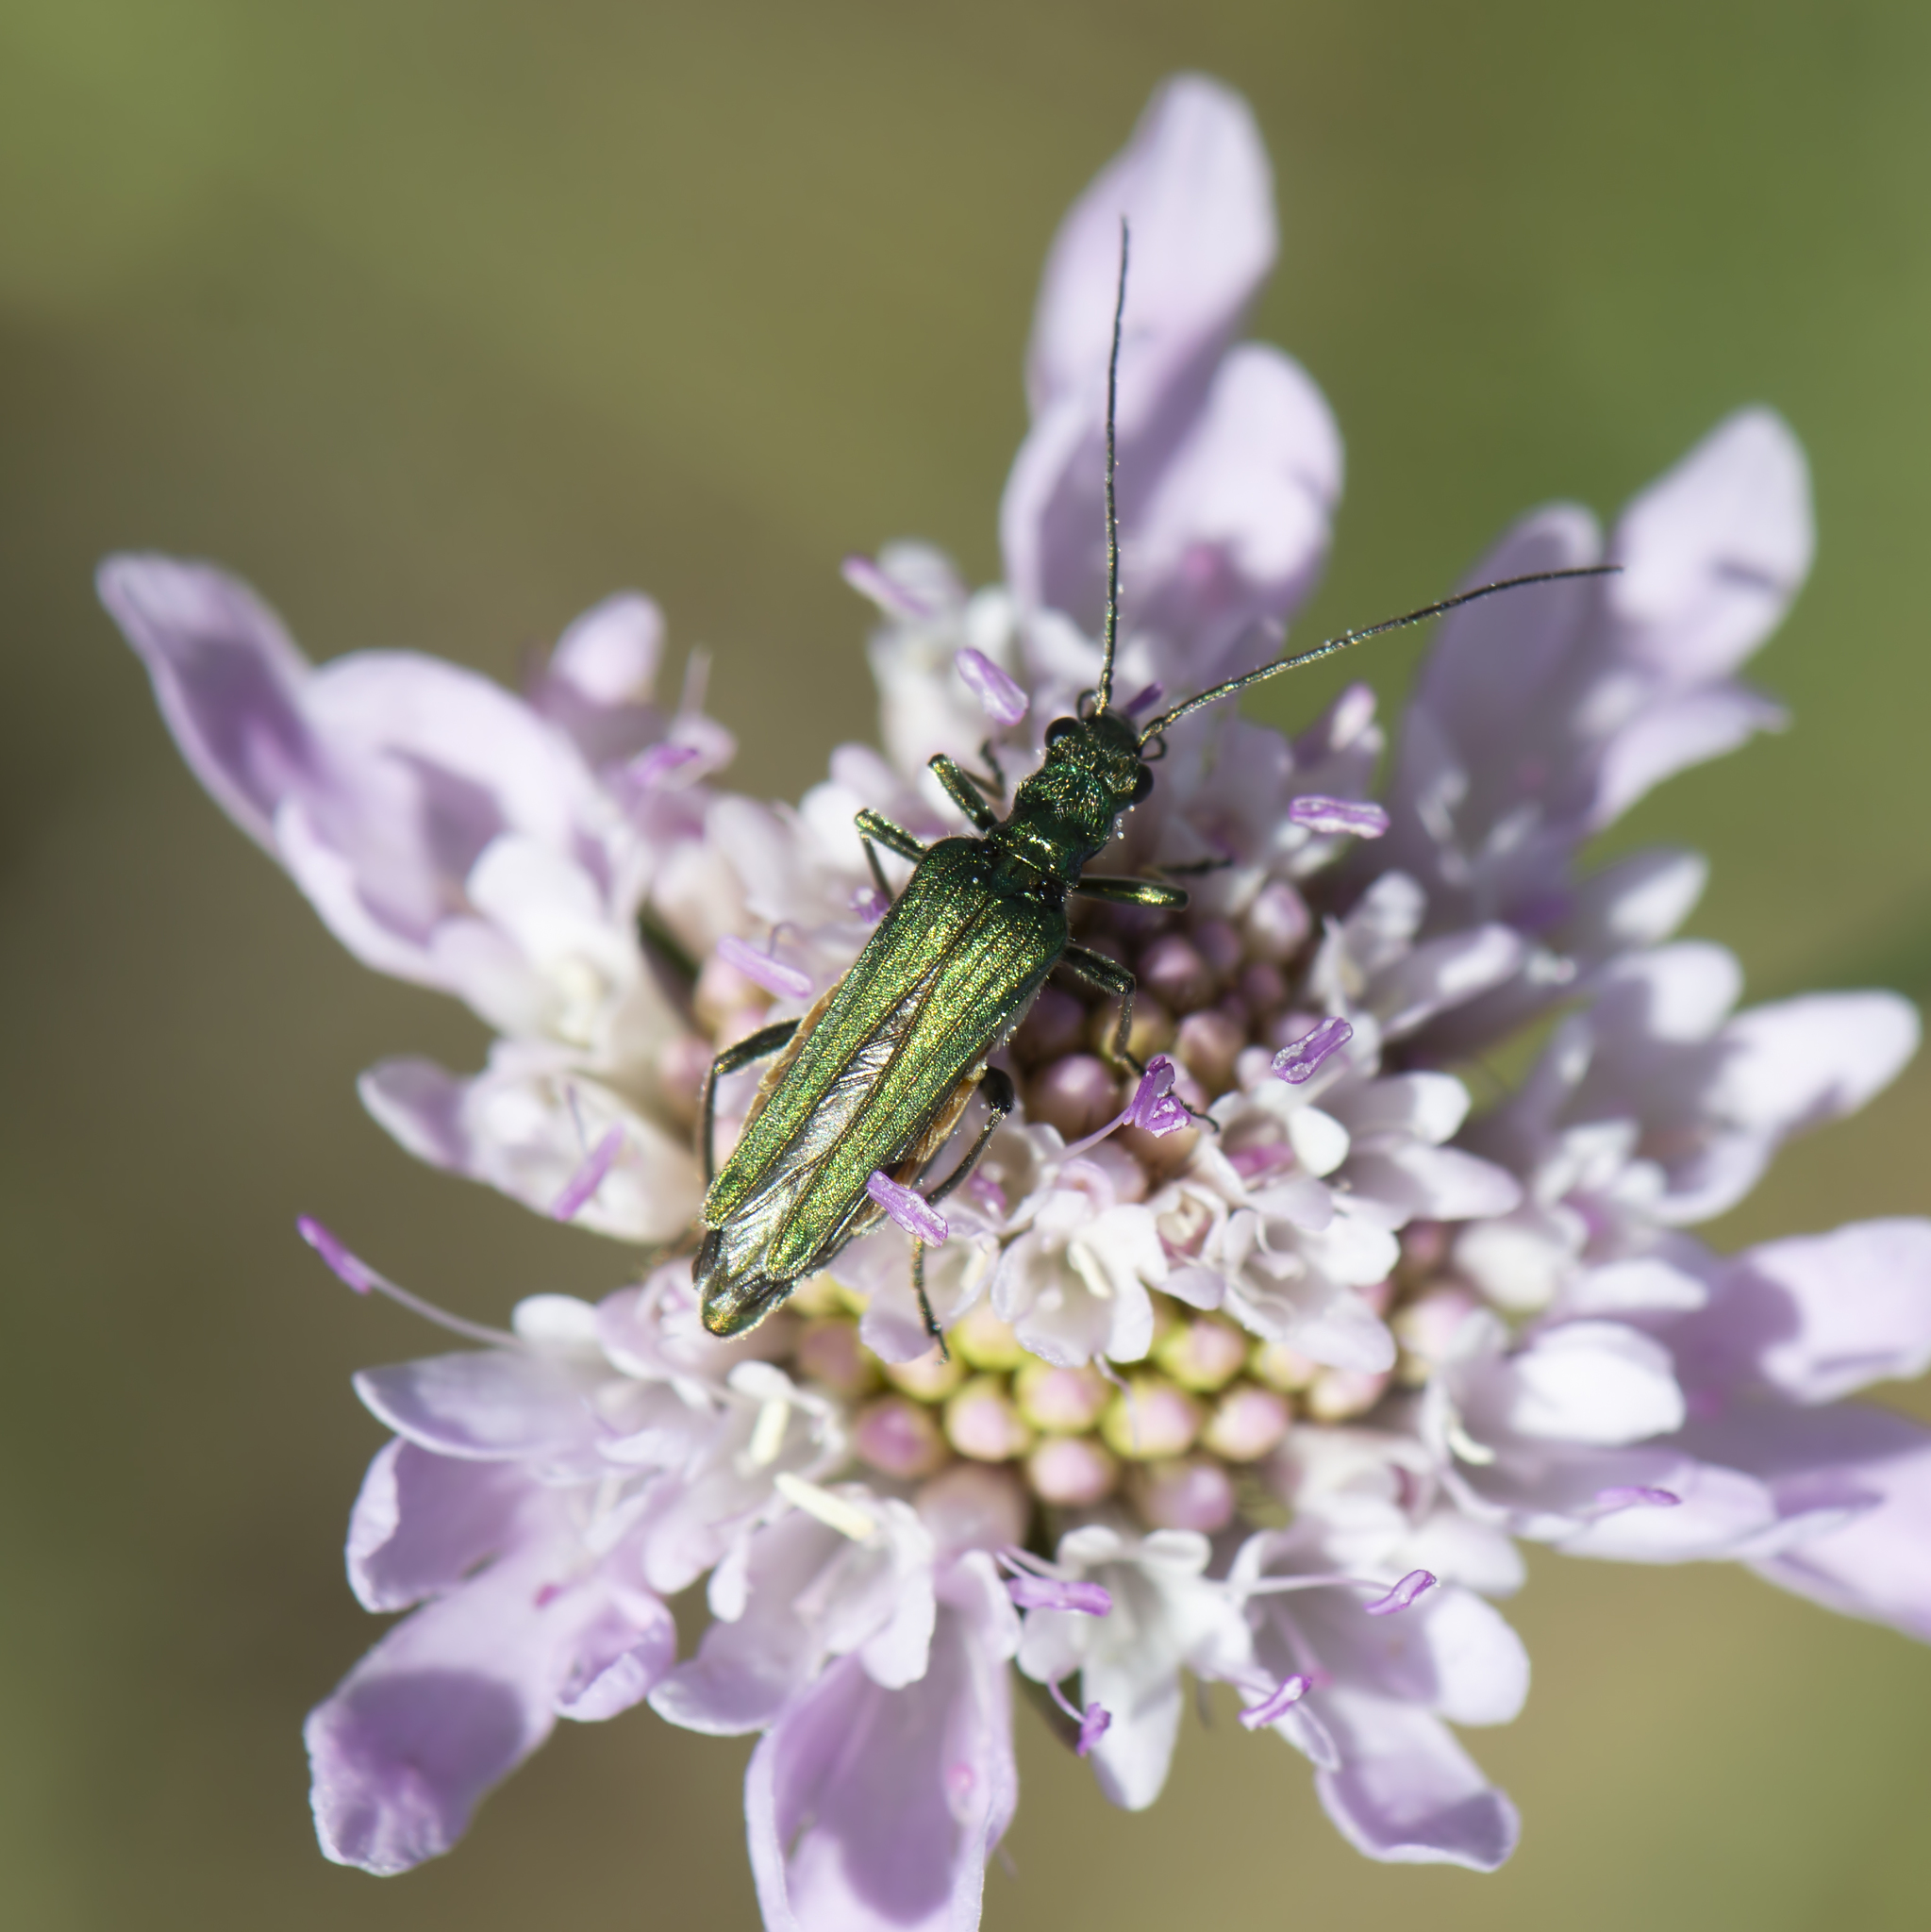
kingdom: Animalia
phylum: Arthropoda
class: Insecta
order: Coleoptera
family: Oedemeridae
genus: Oedemera
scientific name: Oedemera nobilis
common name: Swollen-thighed beetle
